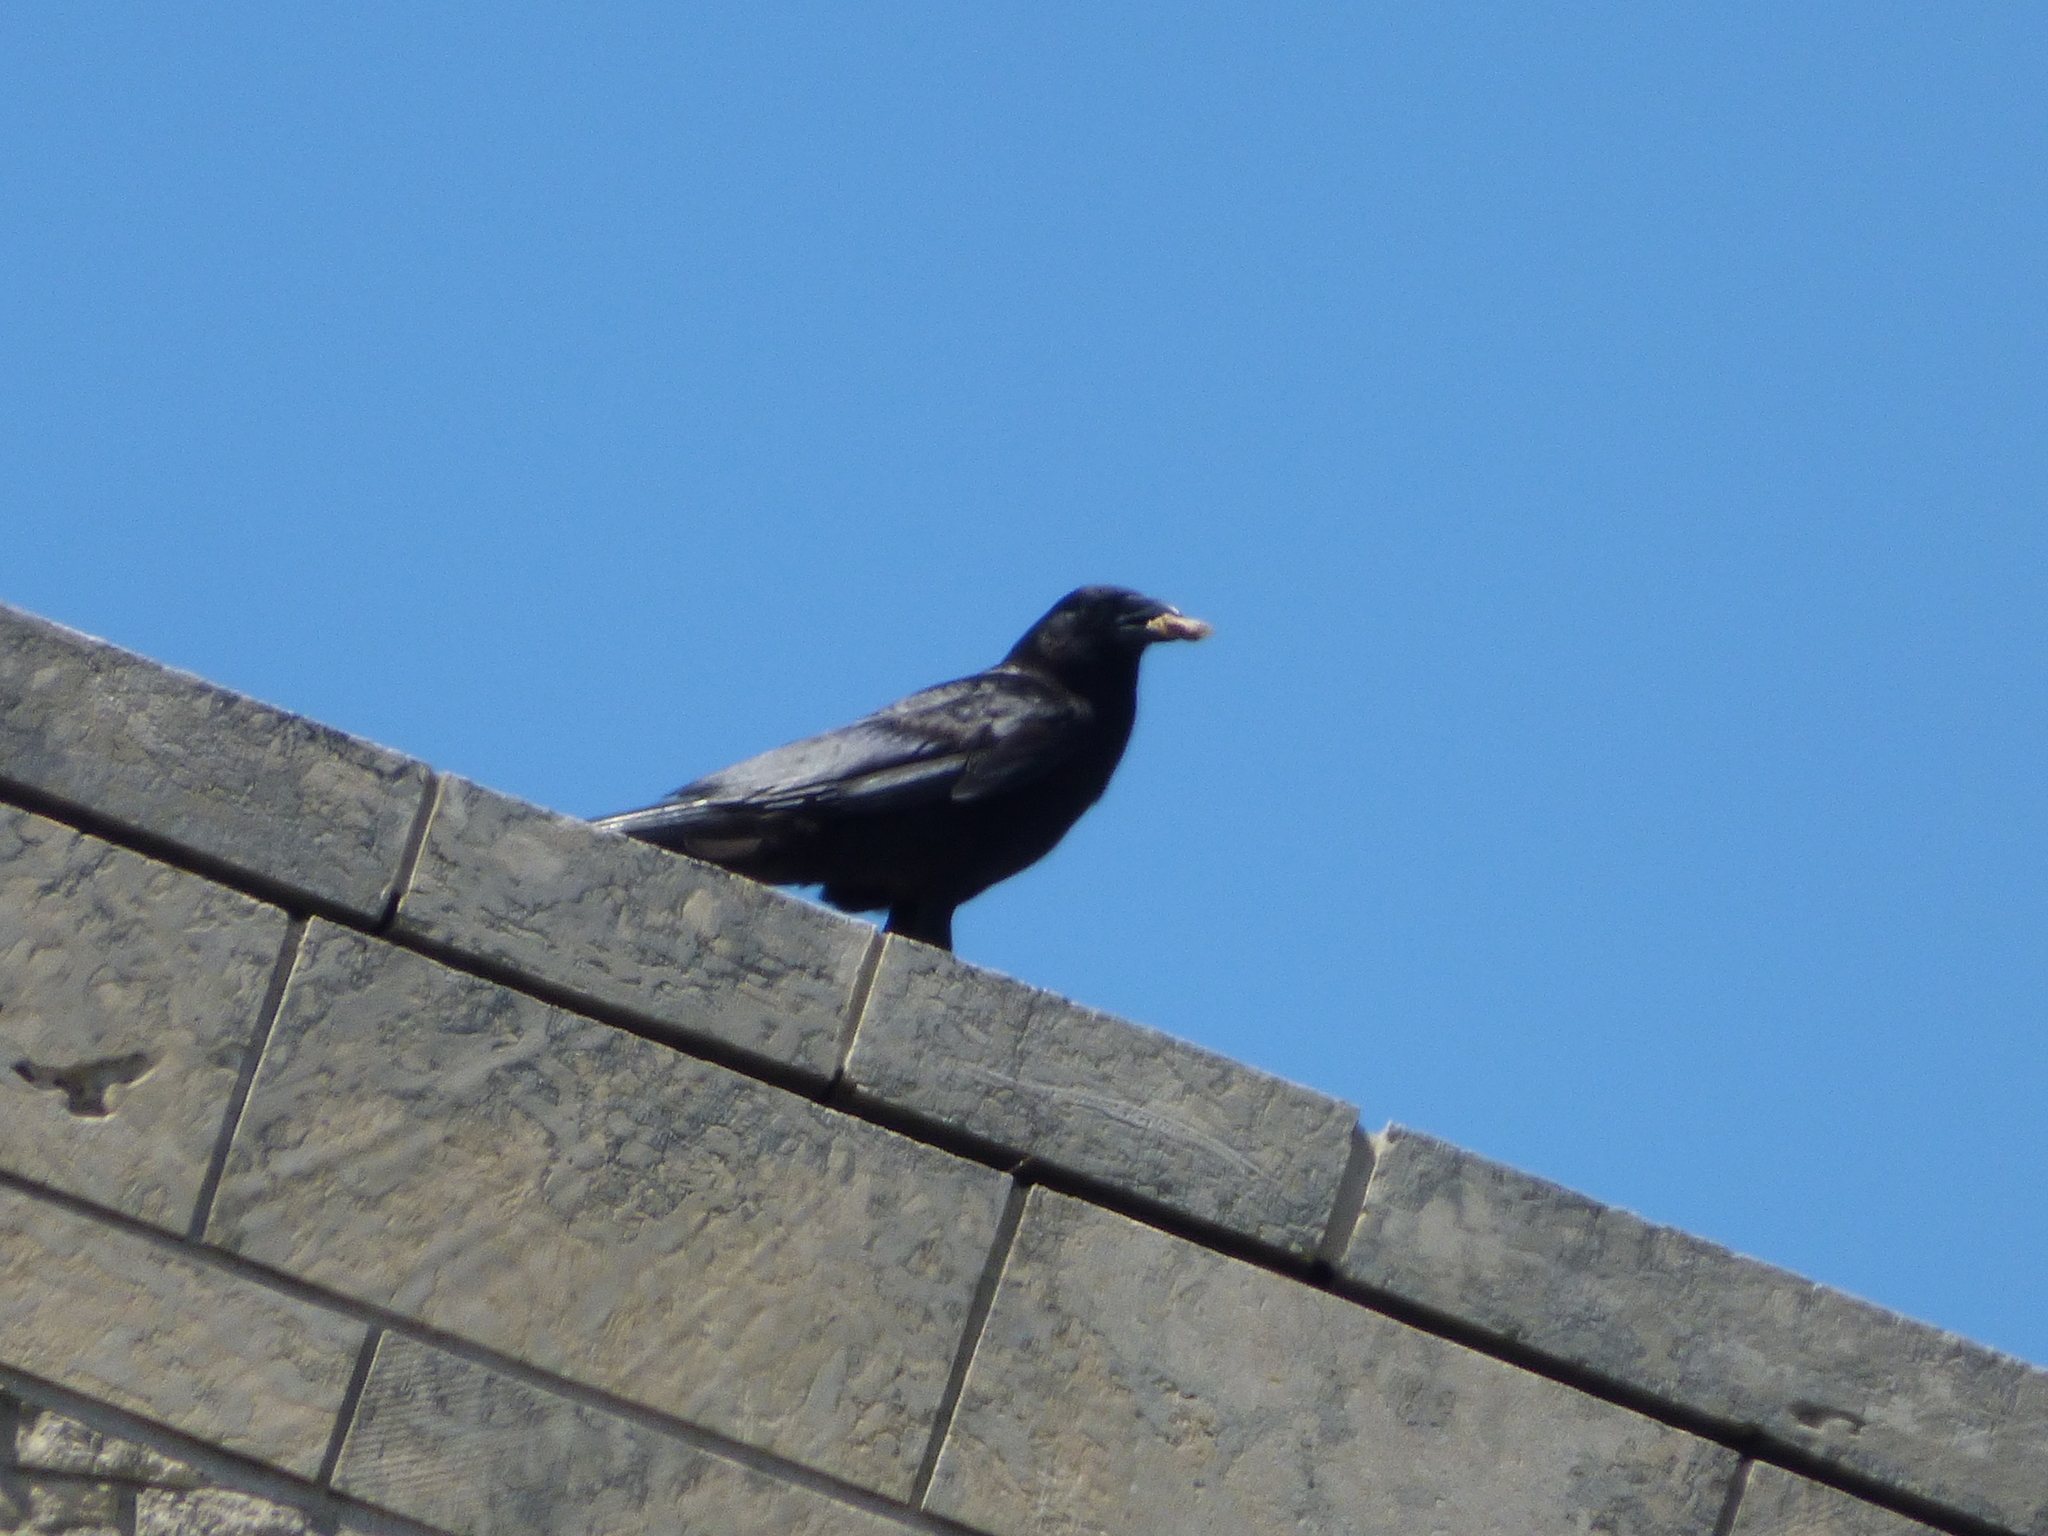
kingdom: Animalia
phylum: Chordata
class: Aves
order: Passeriformes
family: Corvidae
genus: Corvus
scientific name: Corvus corax
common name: Common raven
